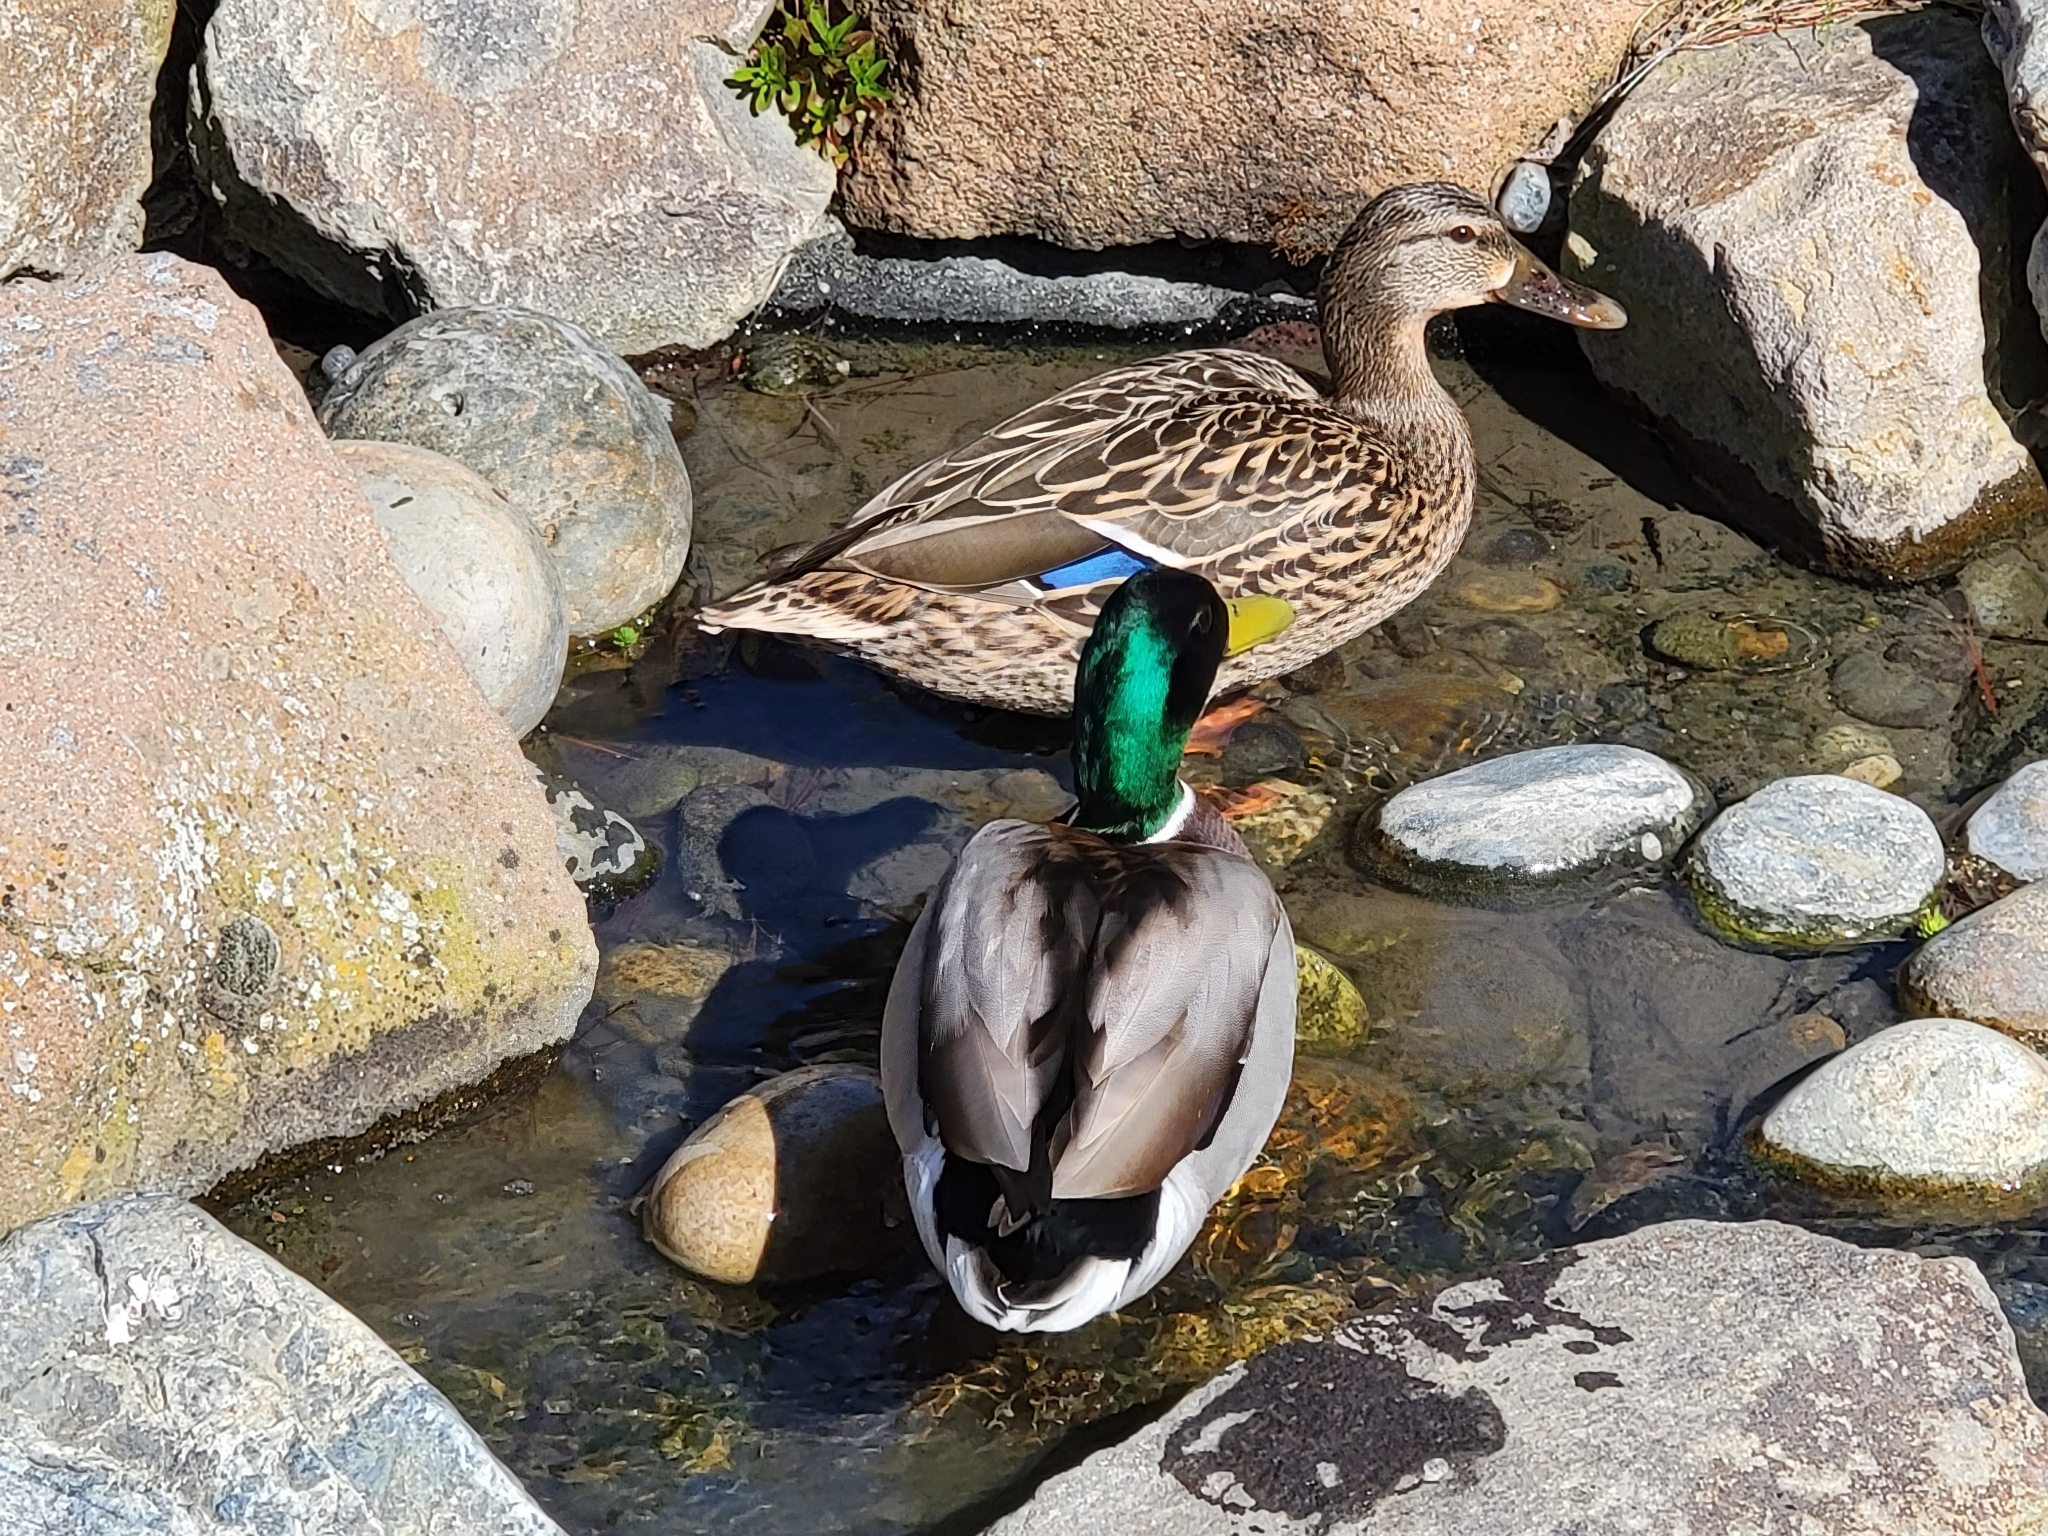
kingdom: Animalia
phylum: Chordata
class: Aves
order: Anseriformes
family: Anatidae
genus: Anas
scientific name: Anas platyrhynchos
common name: Mallard
